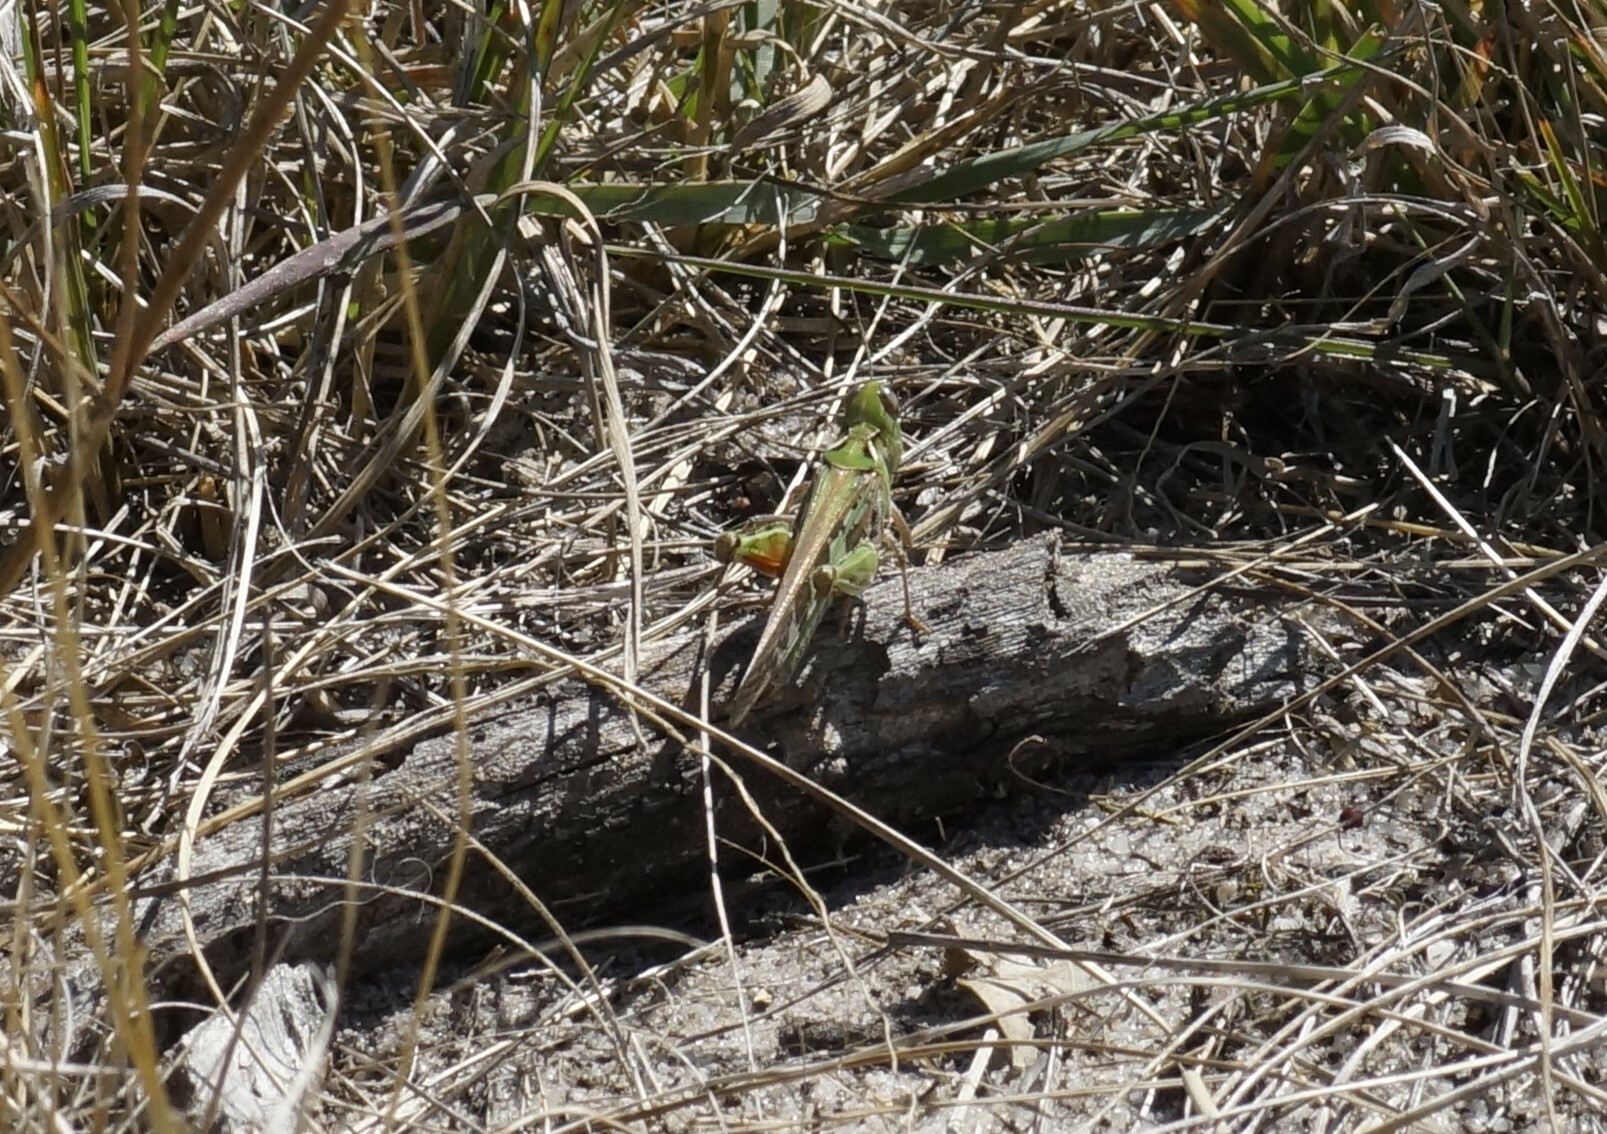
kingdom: Animalia
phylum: Arthropoda
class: Insecta
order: Orthoptera
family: Acrididae
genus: Chortoicetes
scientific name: Chortoicetes terminifera
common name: Australian plague locust
